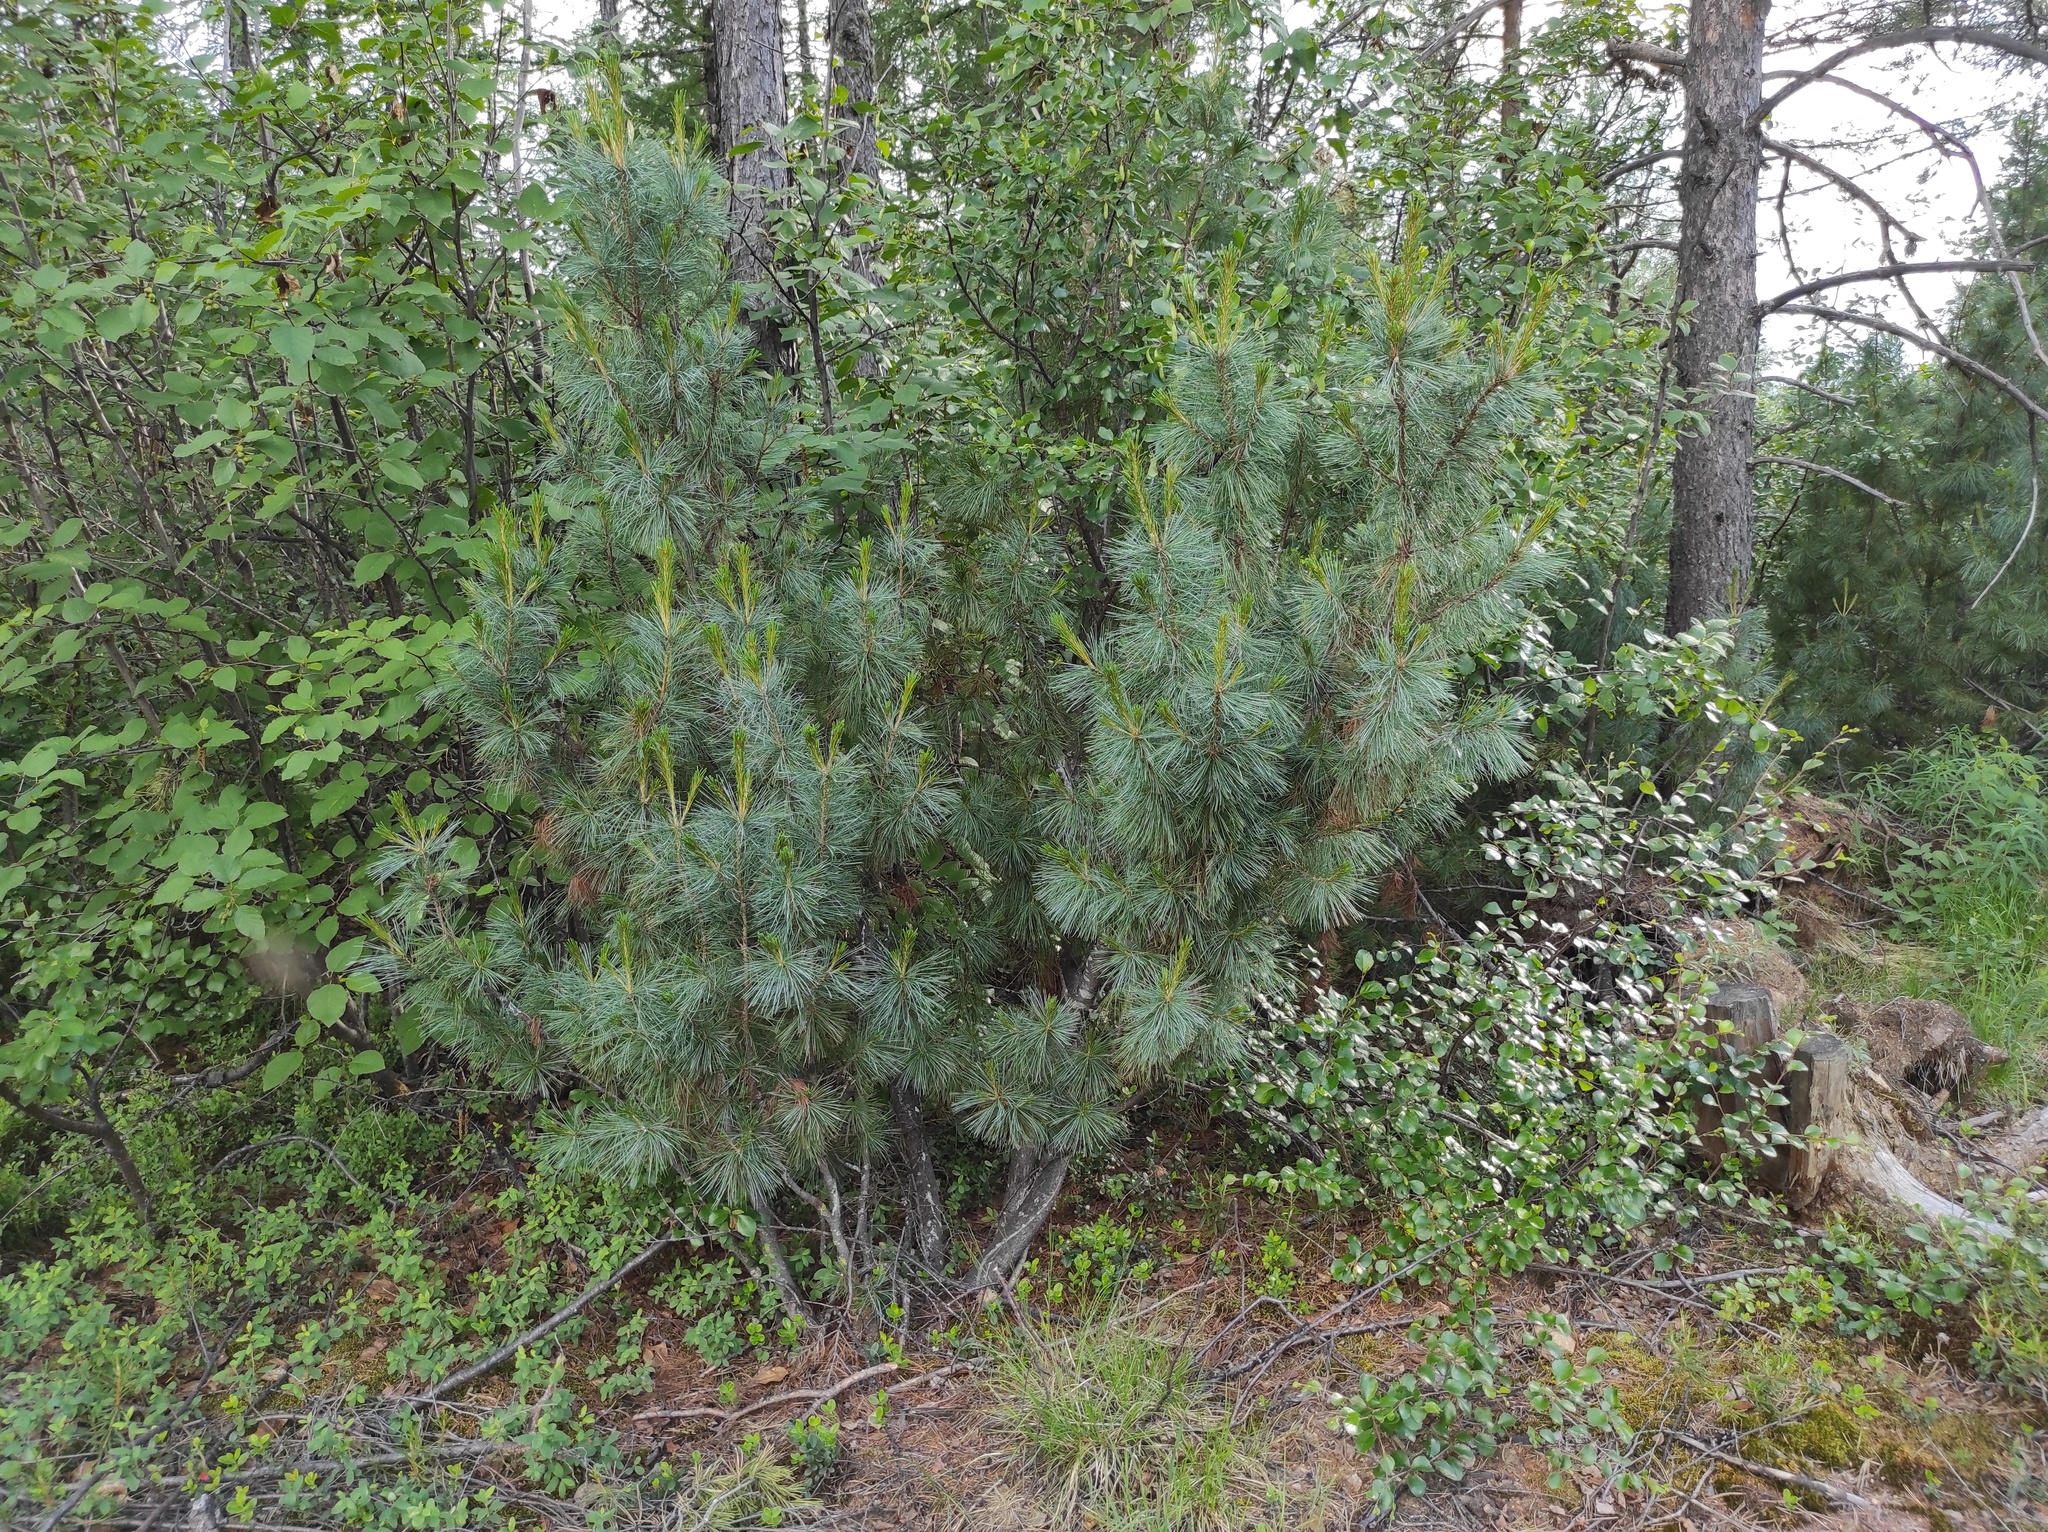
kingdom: Plantae
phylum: Tracheophyta
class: Pinopsida
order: Pinales
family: Pinaceae
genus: Pinus
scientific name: Pinus sylvestris
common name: Scots pine
